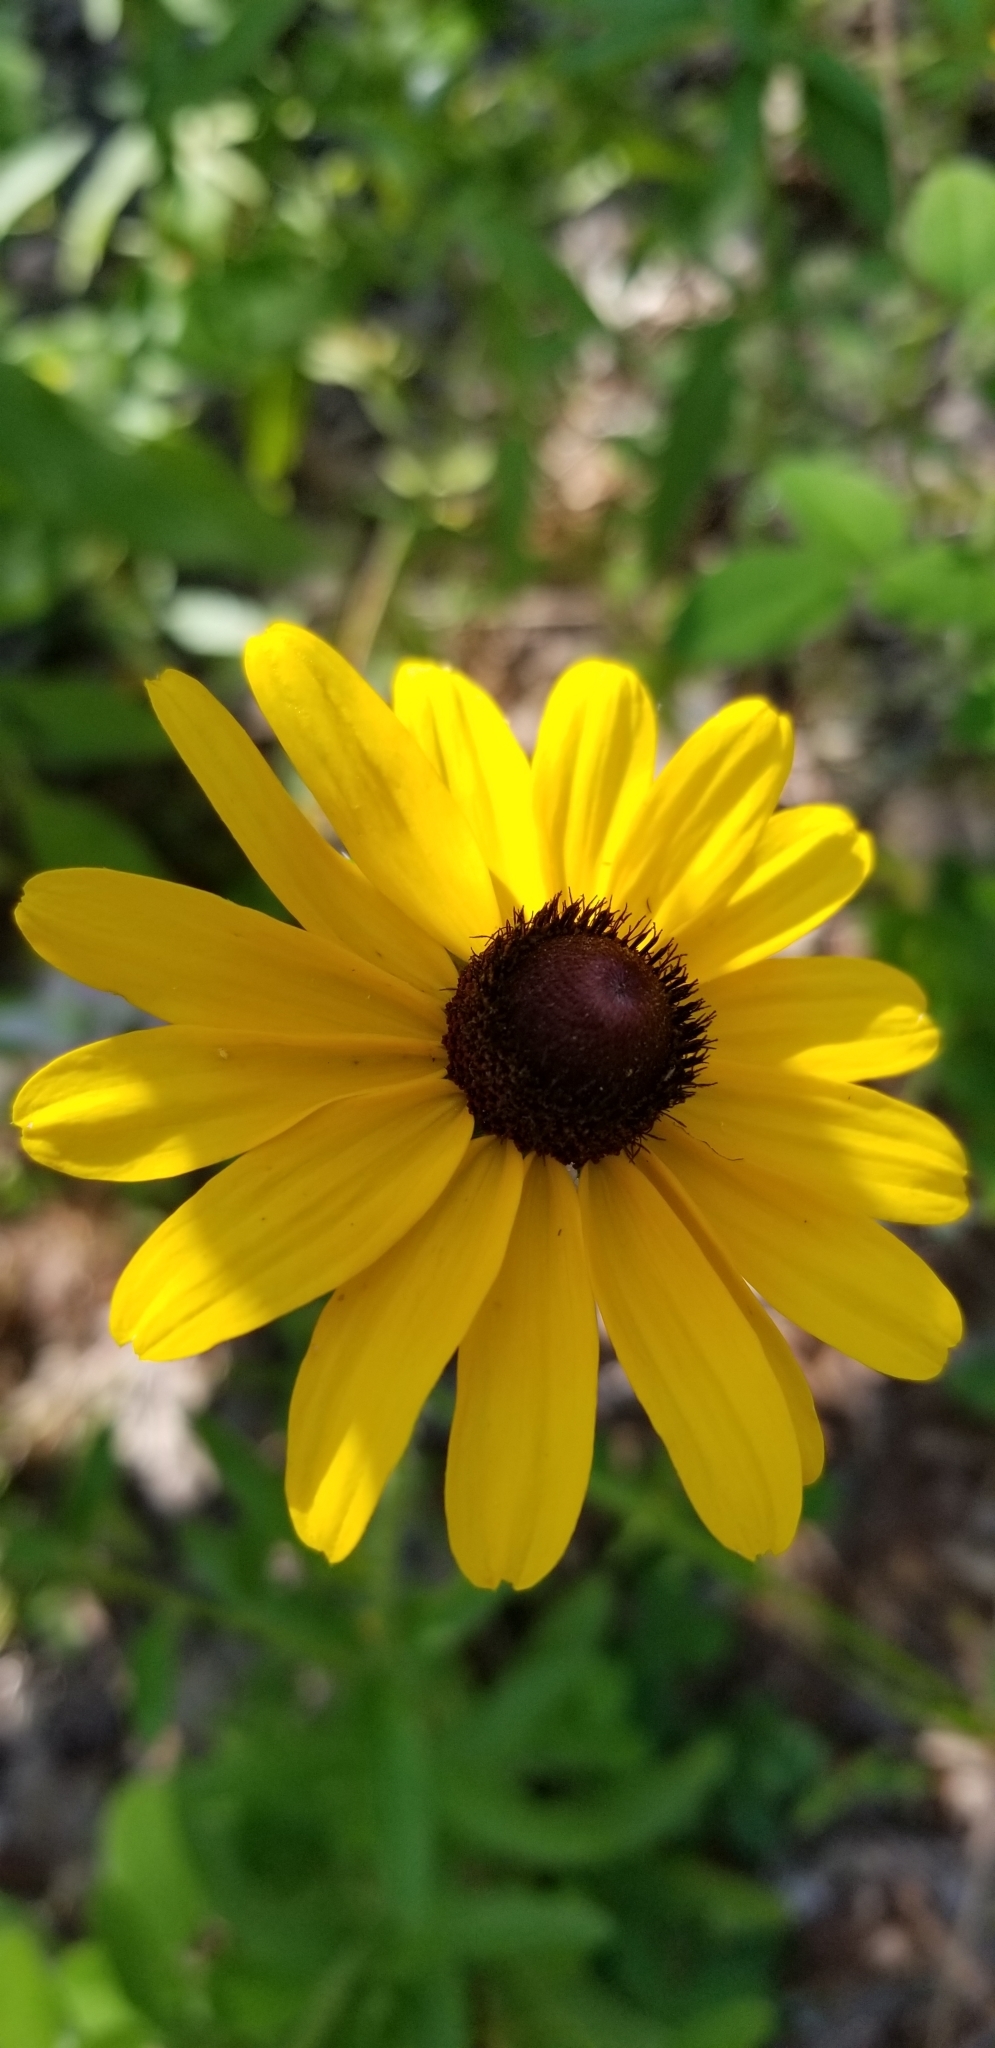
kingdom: Plantae
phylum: Tracheophyta
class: Magnoliopsida
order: Asterales
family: Asteraceae
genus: Rudbeckia
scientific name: Rudbeckia hirta
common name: Black-eyed-susan
